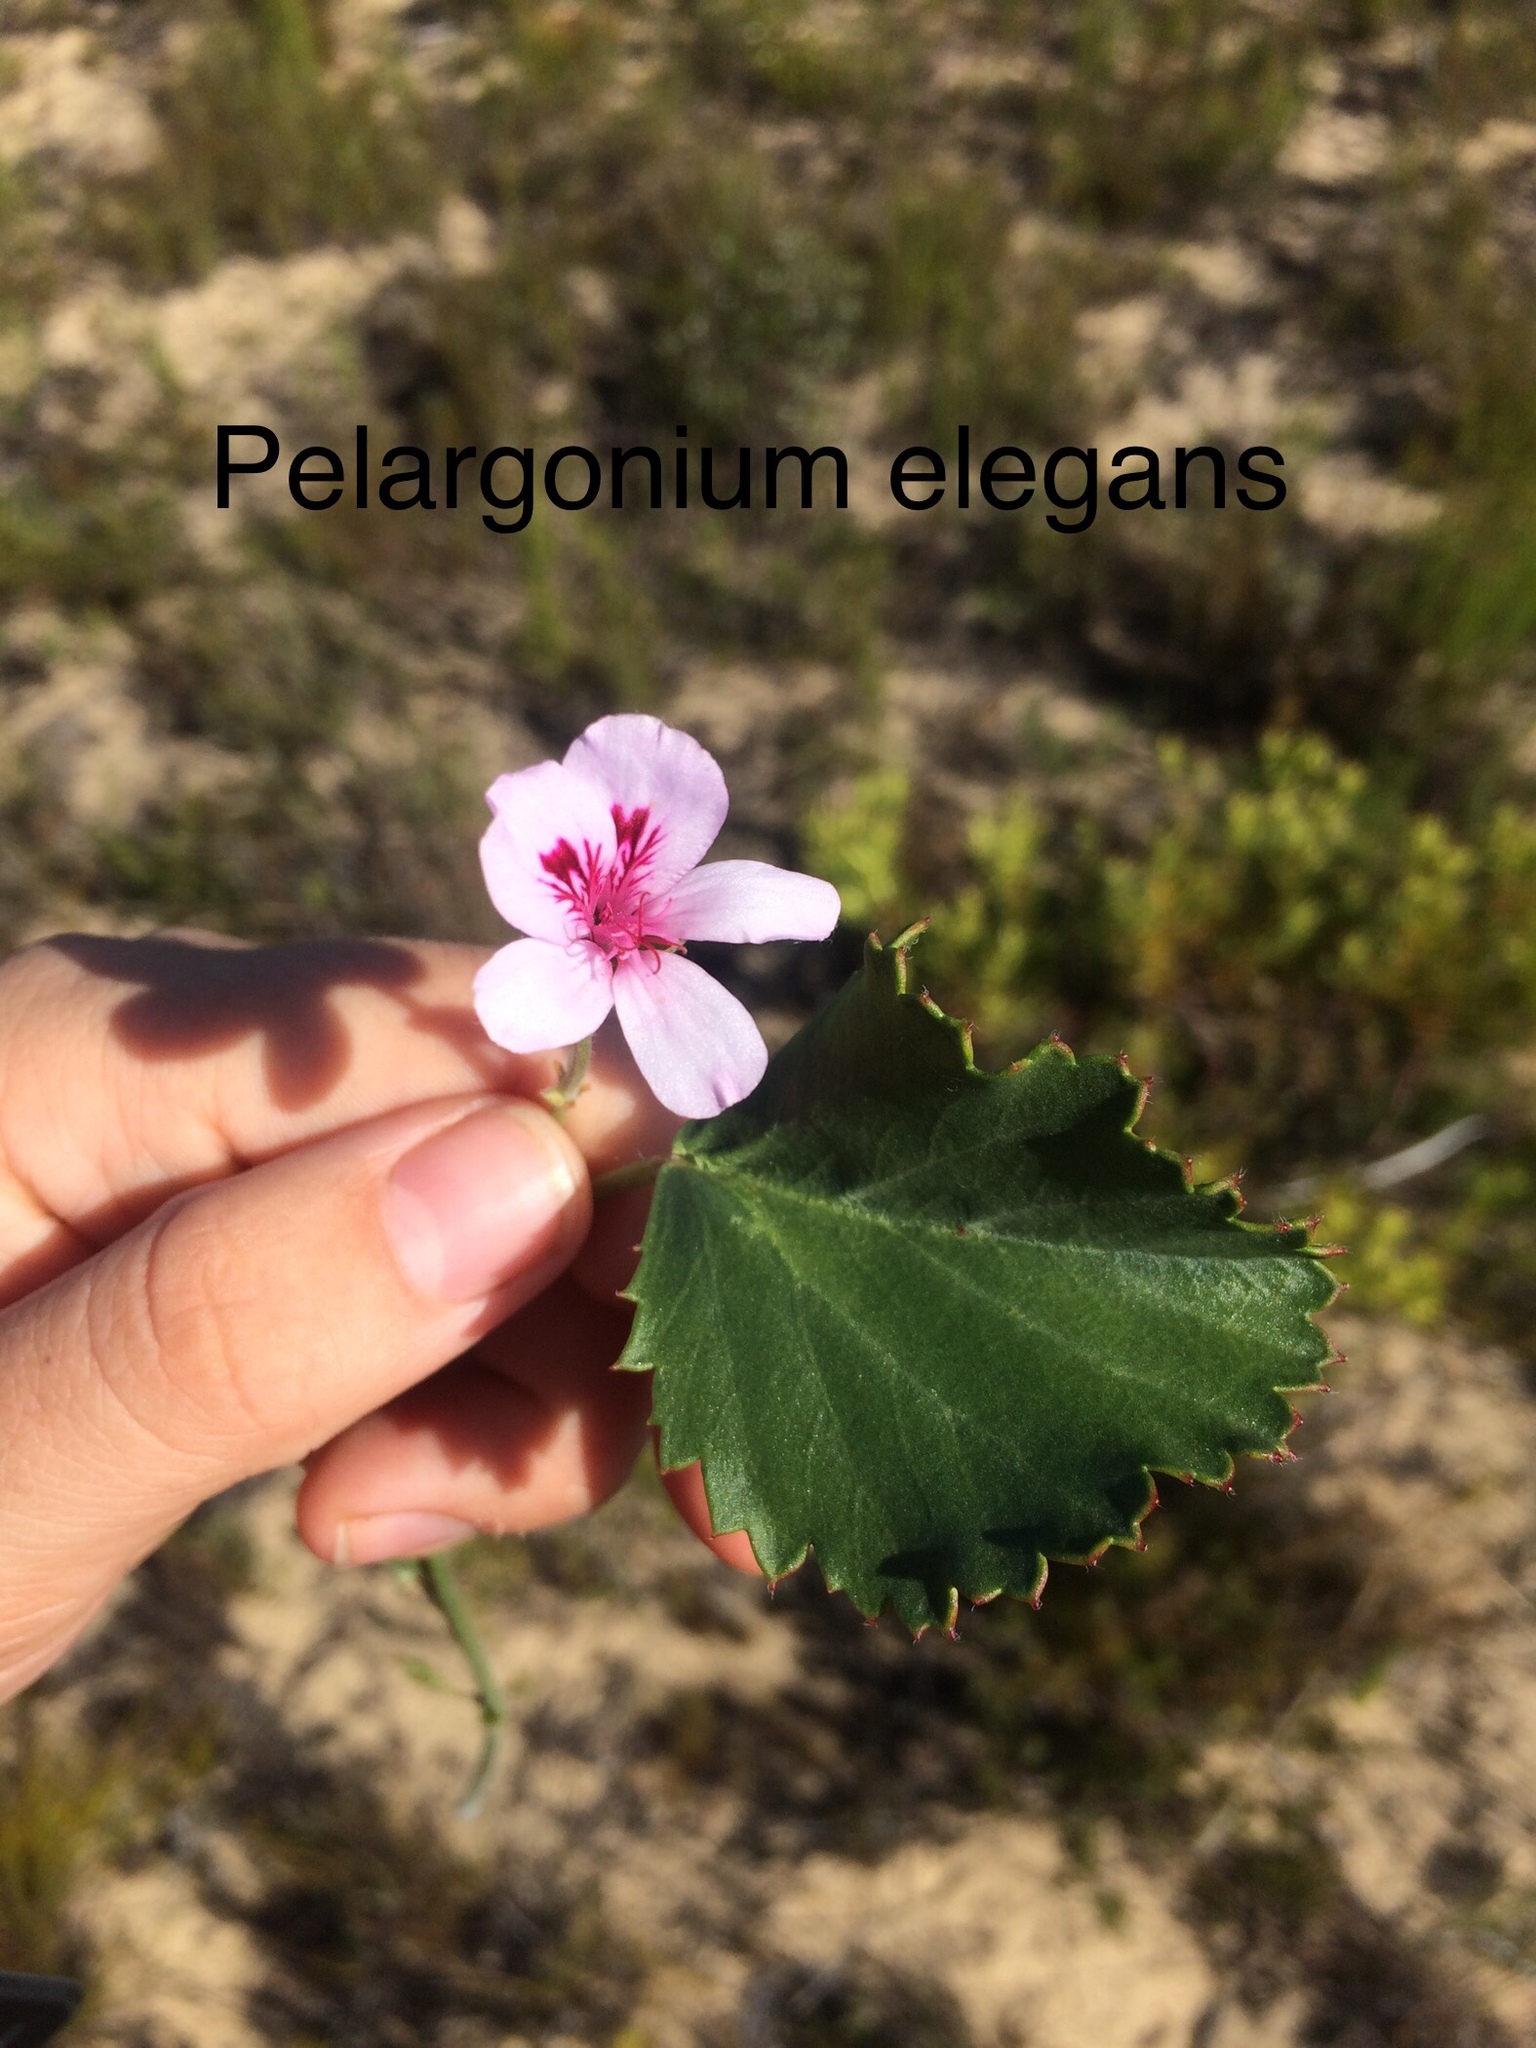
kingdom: Plantae
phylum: Tracheophyta
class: Magnoliopsida
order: Geraniales
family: Geraniaceae
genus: Pelargonium
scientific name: Pelargonium elegans
